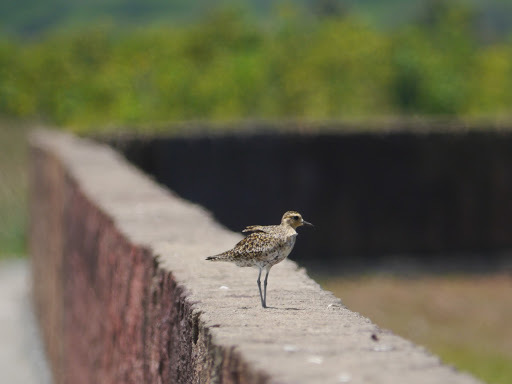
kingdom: Animalia
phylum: Chordata
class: Aves
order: Charadriiformes
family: Charadriidae
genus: Pluvialis
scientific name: Pluvialis fulva
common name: Pacific golden plover
